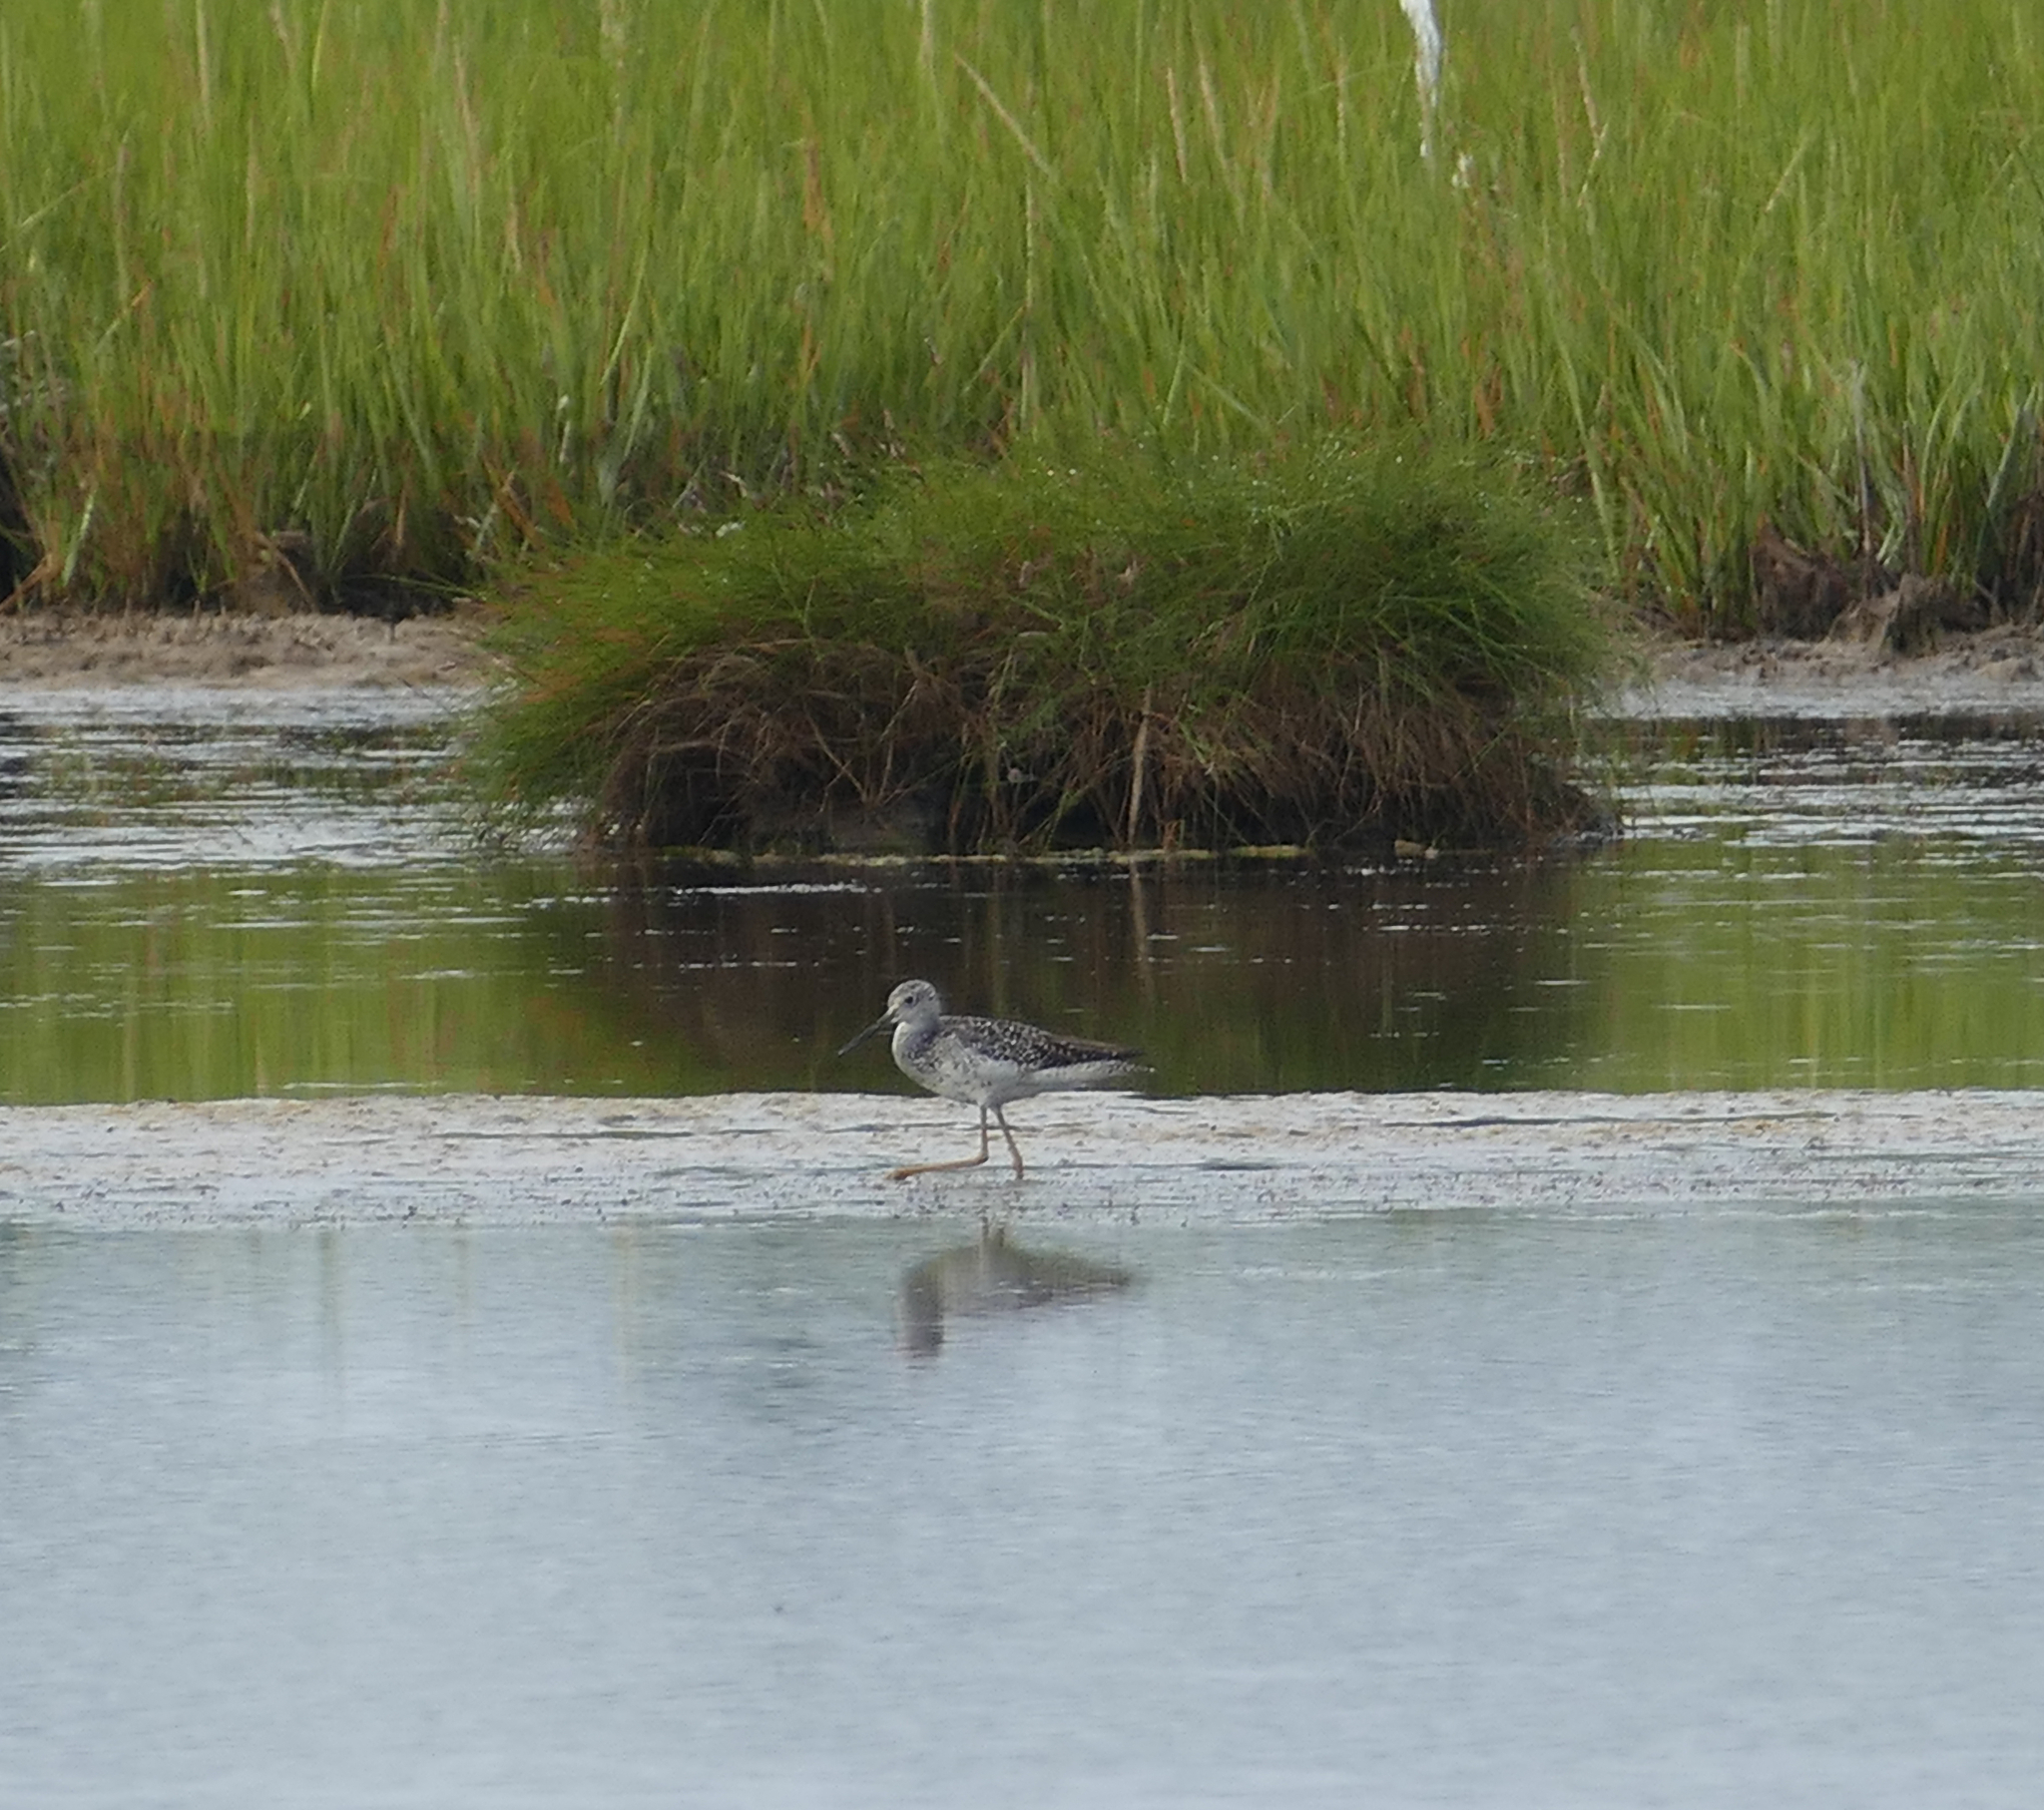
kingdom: Animalia
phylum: Chordata
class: Aves
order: Charadriiformes
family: Scolopacidae
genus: Tringa
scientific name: Tringa melanoleuca
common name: Greater yellowlegs
